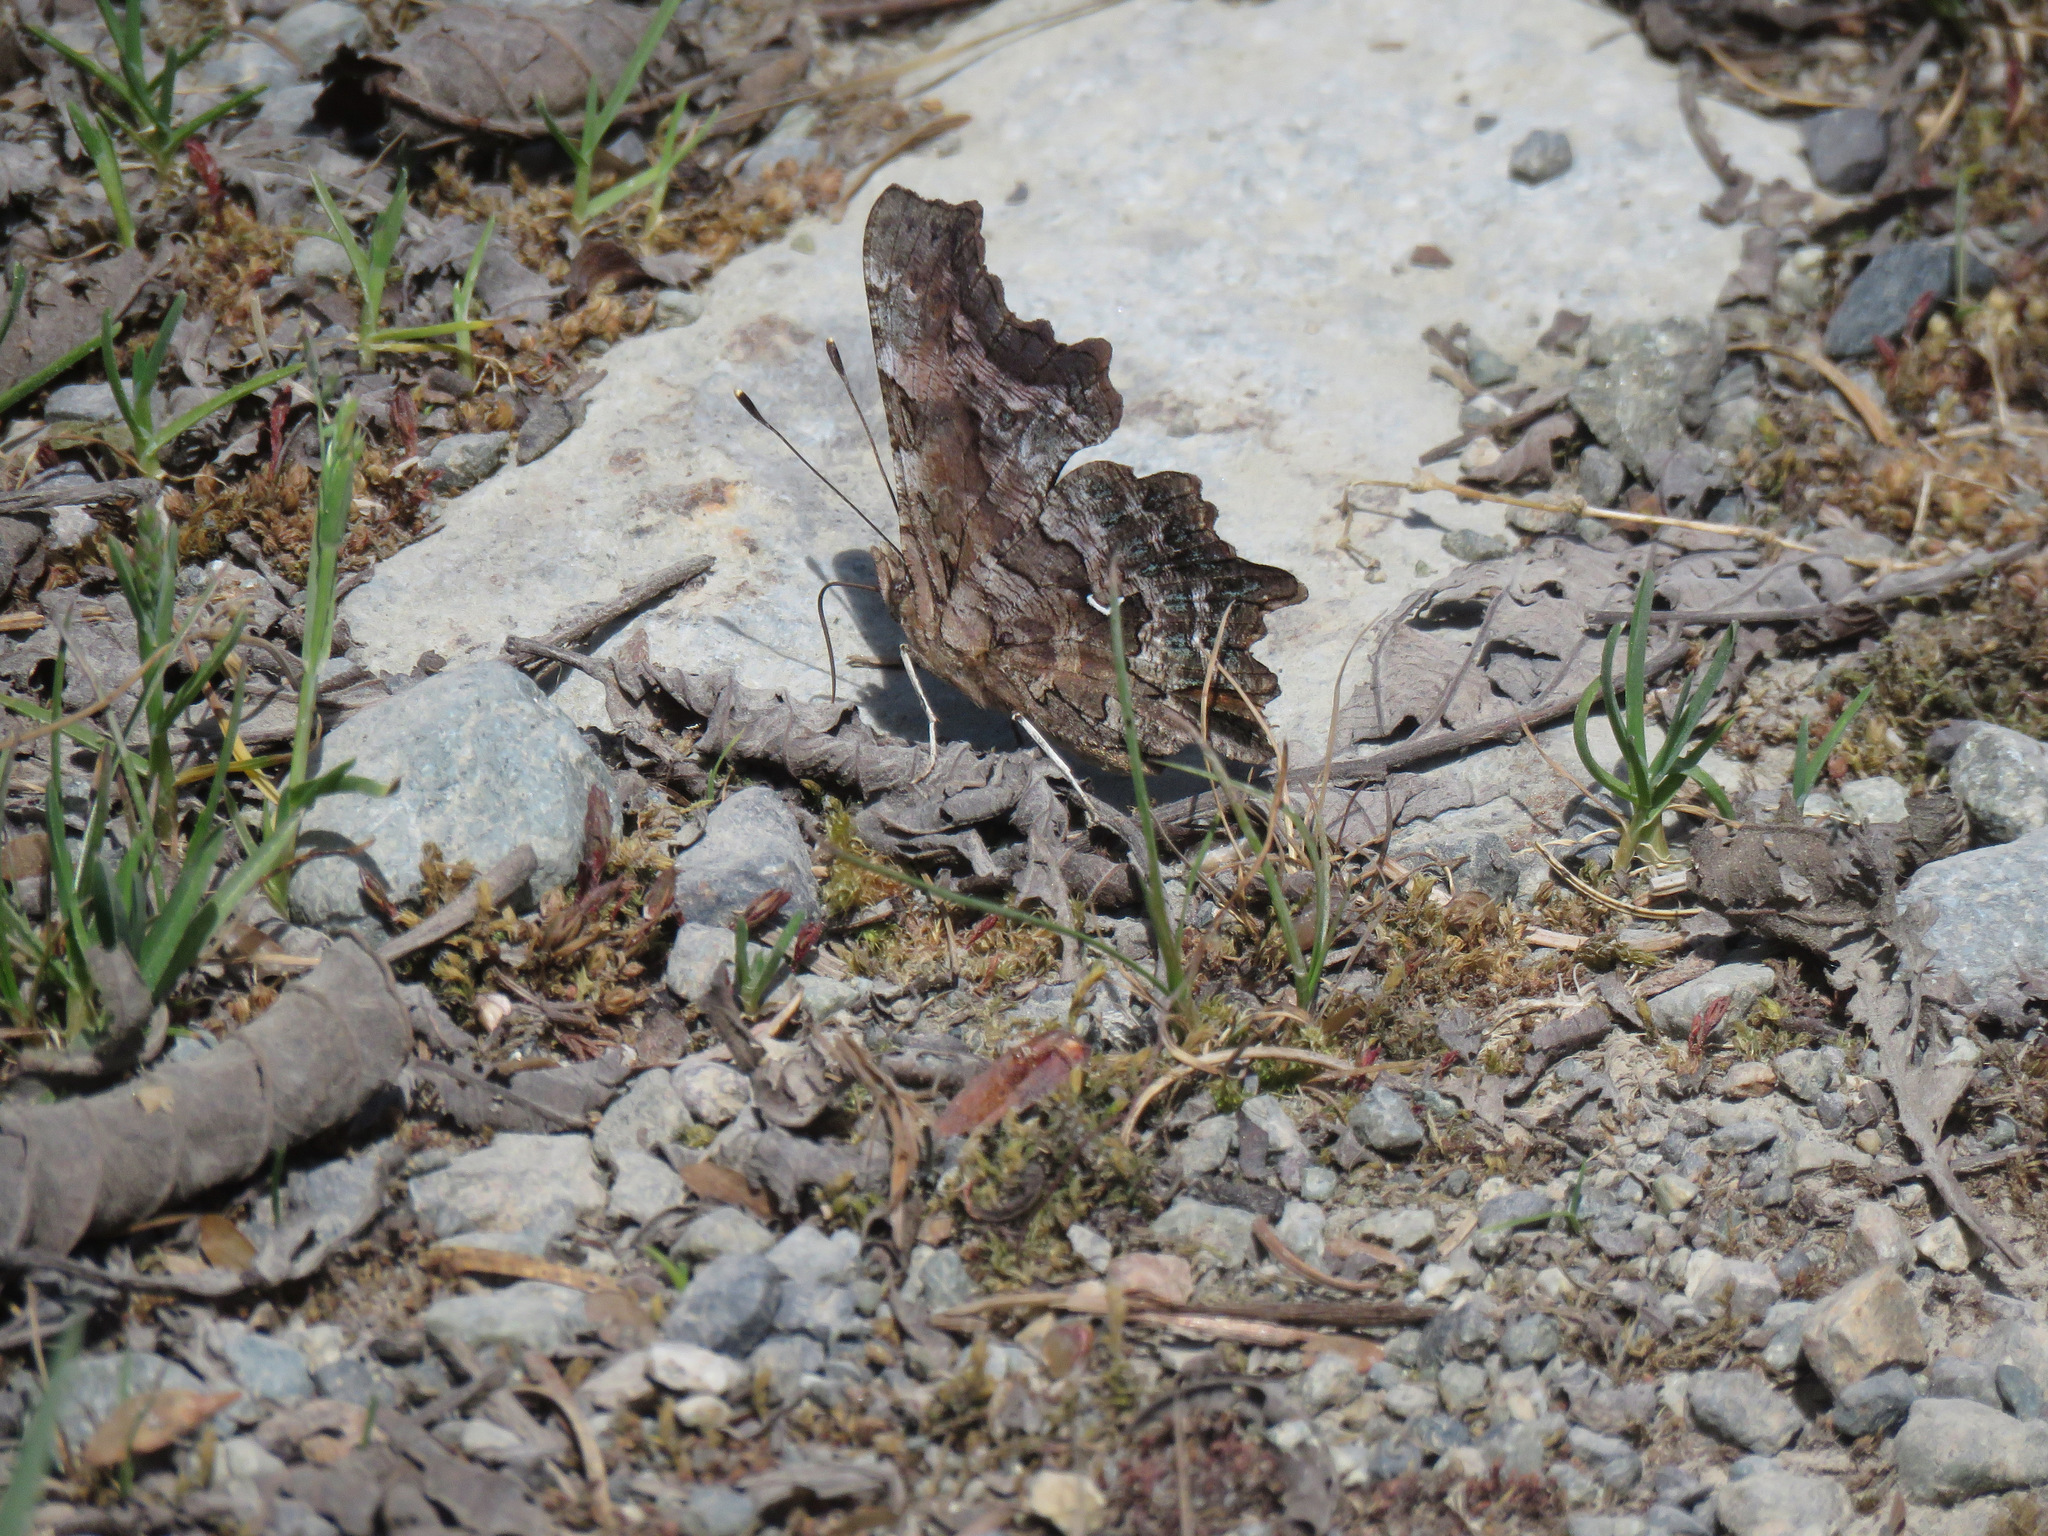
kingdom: Animalia
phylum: Arthropoda
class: Insecta
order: Lepidoptera
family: Nymphalidae
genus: Polygonia
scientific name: Polygonia faunus
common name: Green comma
